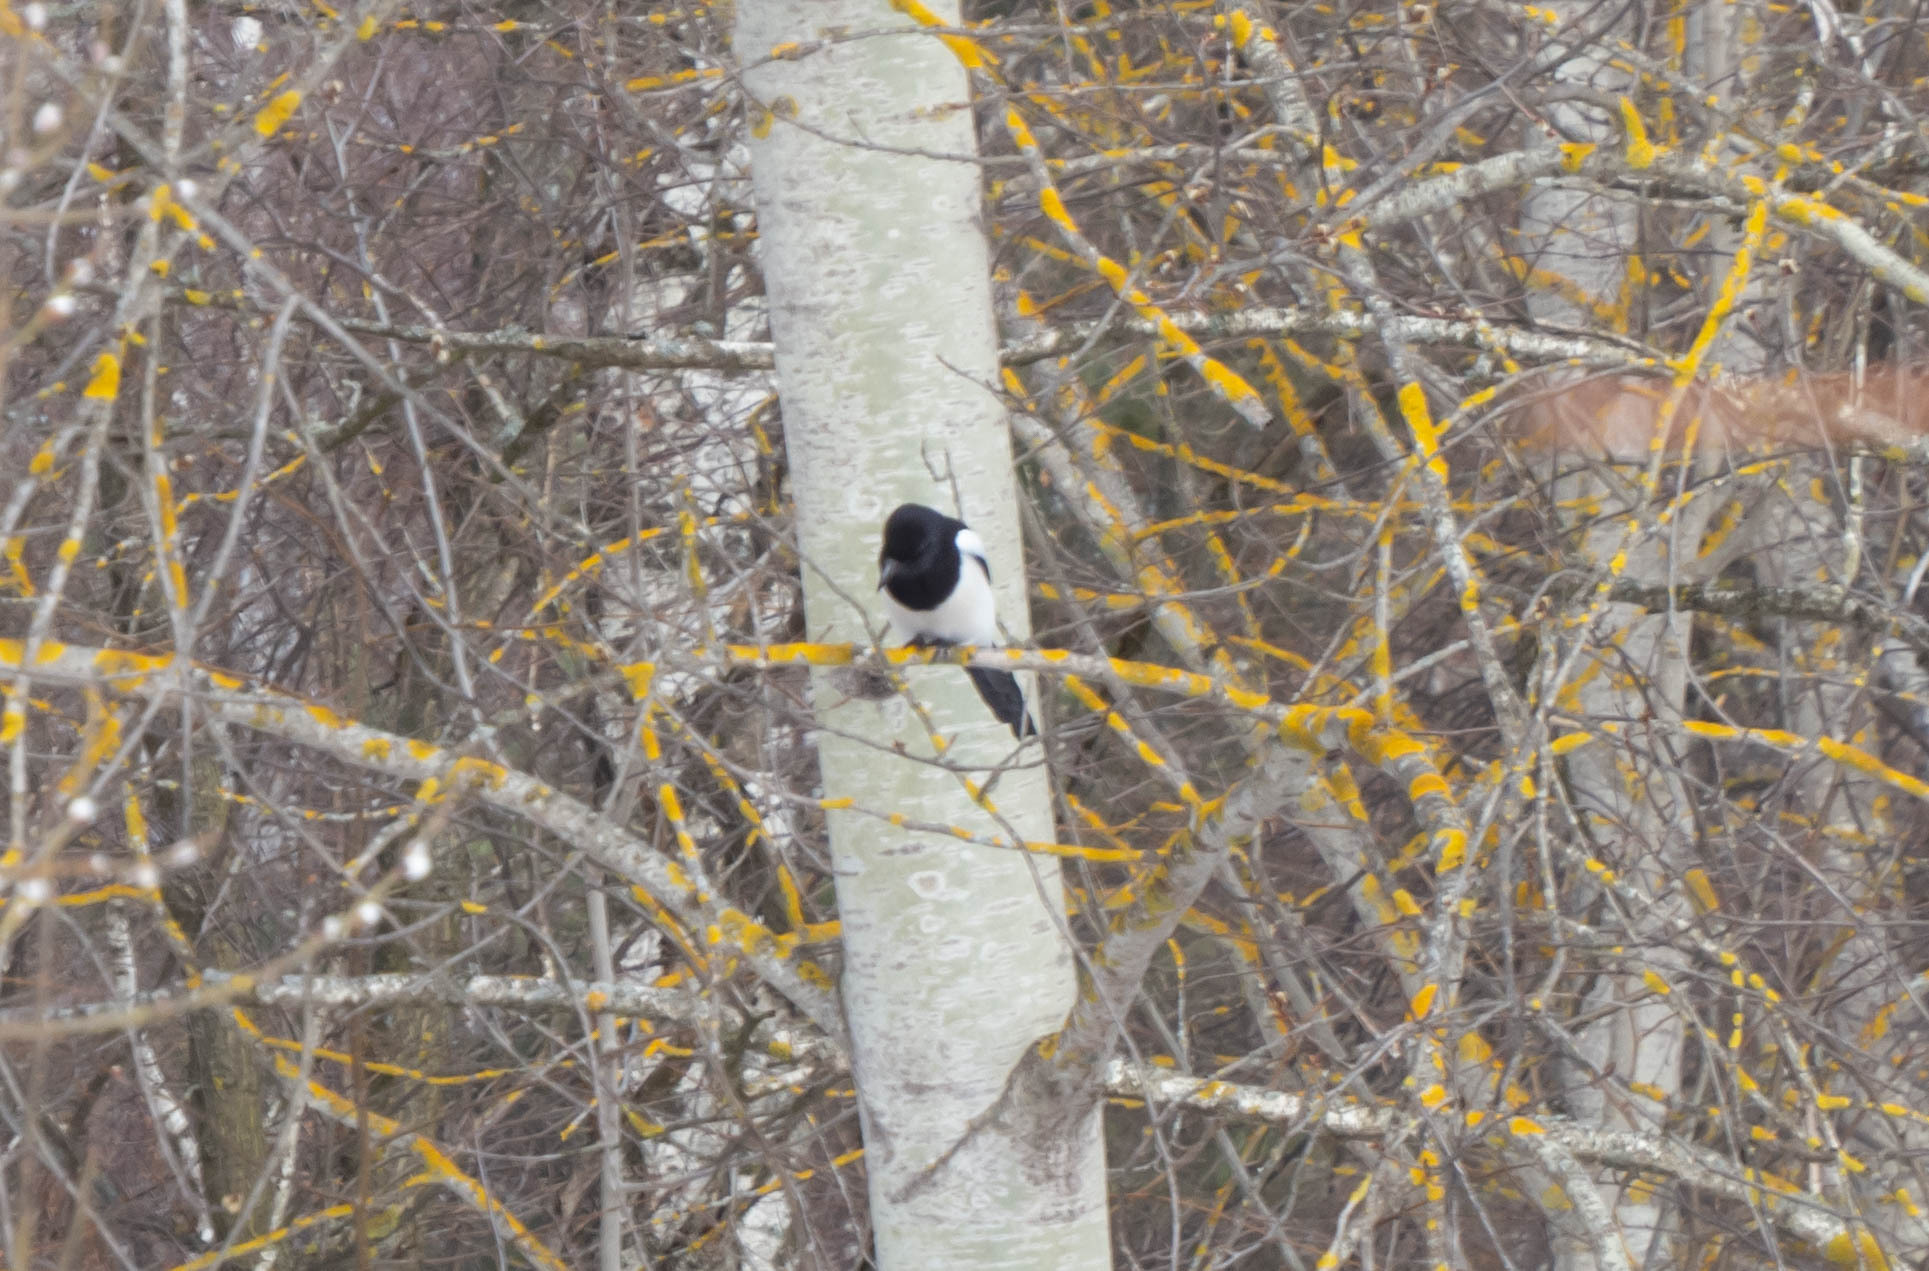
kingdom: Animalia
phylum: Chordata
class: Aves
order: Passeriformes
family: Corvidae
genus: Pica
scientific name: Pica pica
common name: Eurasian magpie
